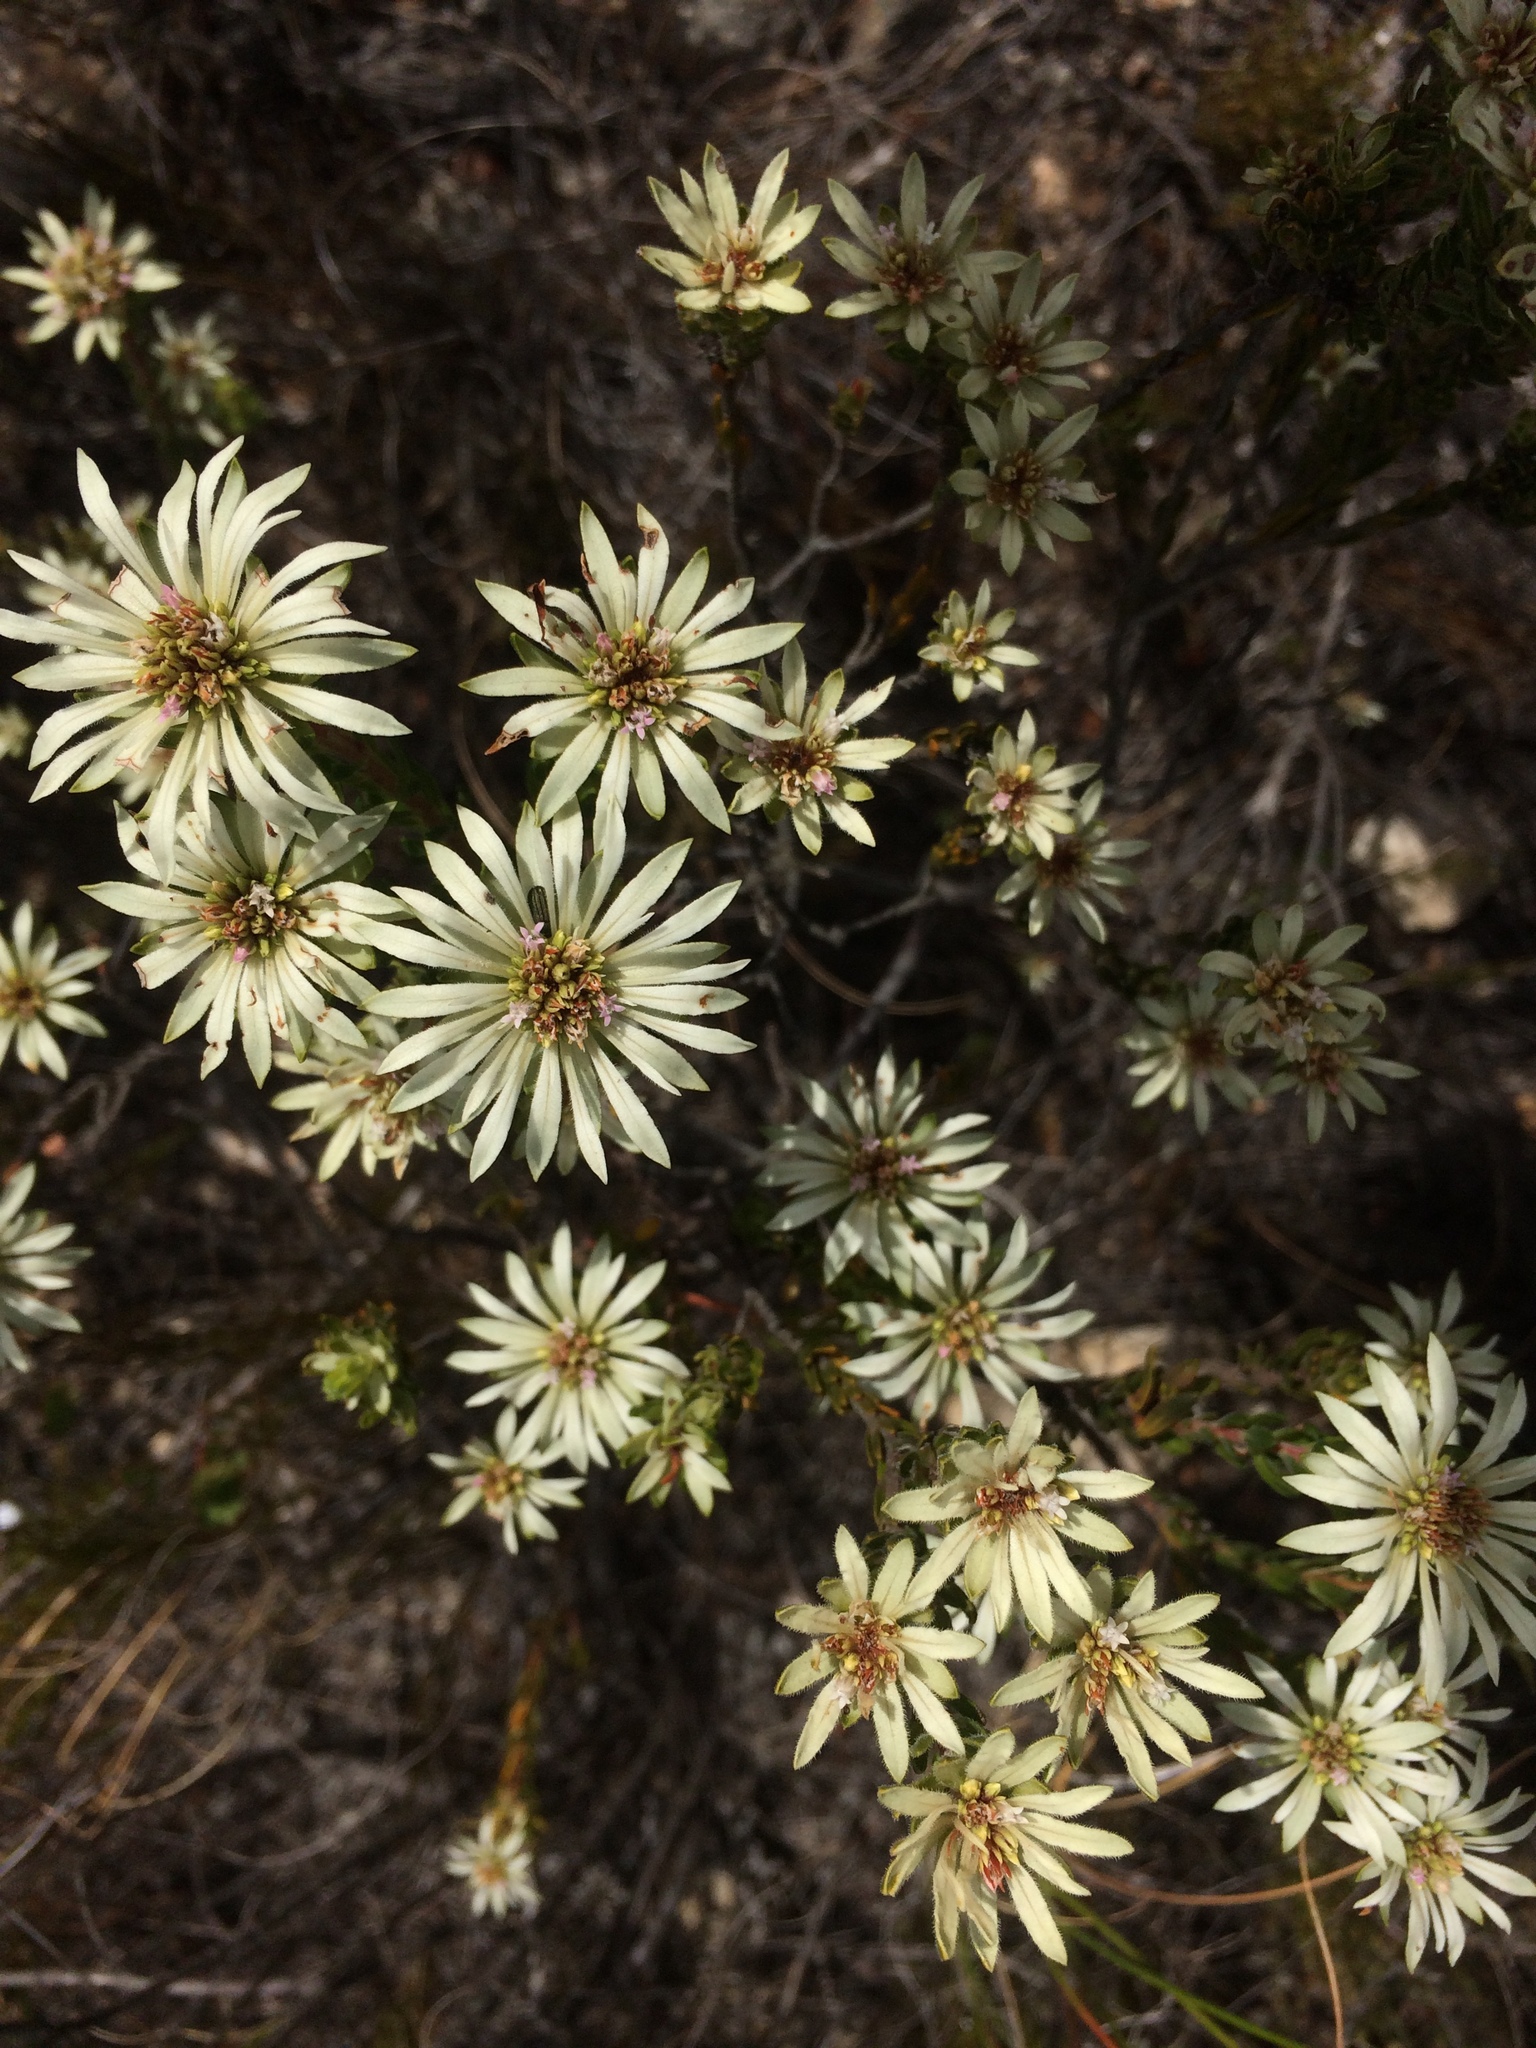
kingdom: Plantae
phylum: Tracheophyta
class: Magnoliopsida
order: Sapindales
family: Rutaceae
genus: Euchaetis
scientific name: Euchaetis longibracteata
